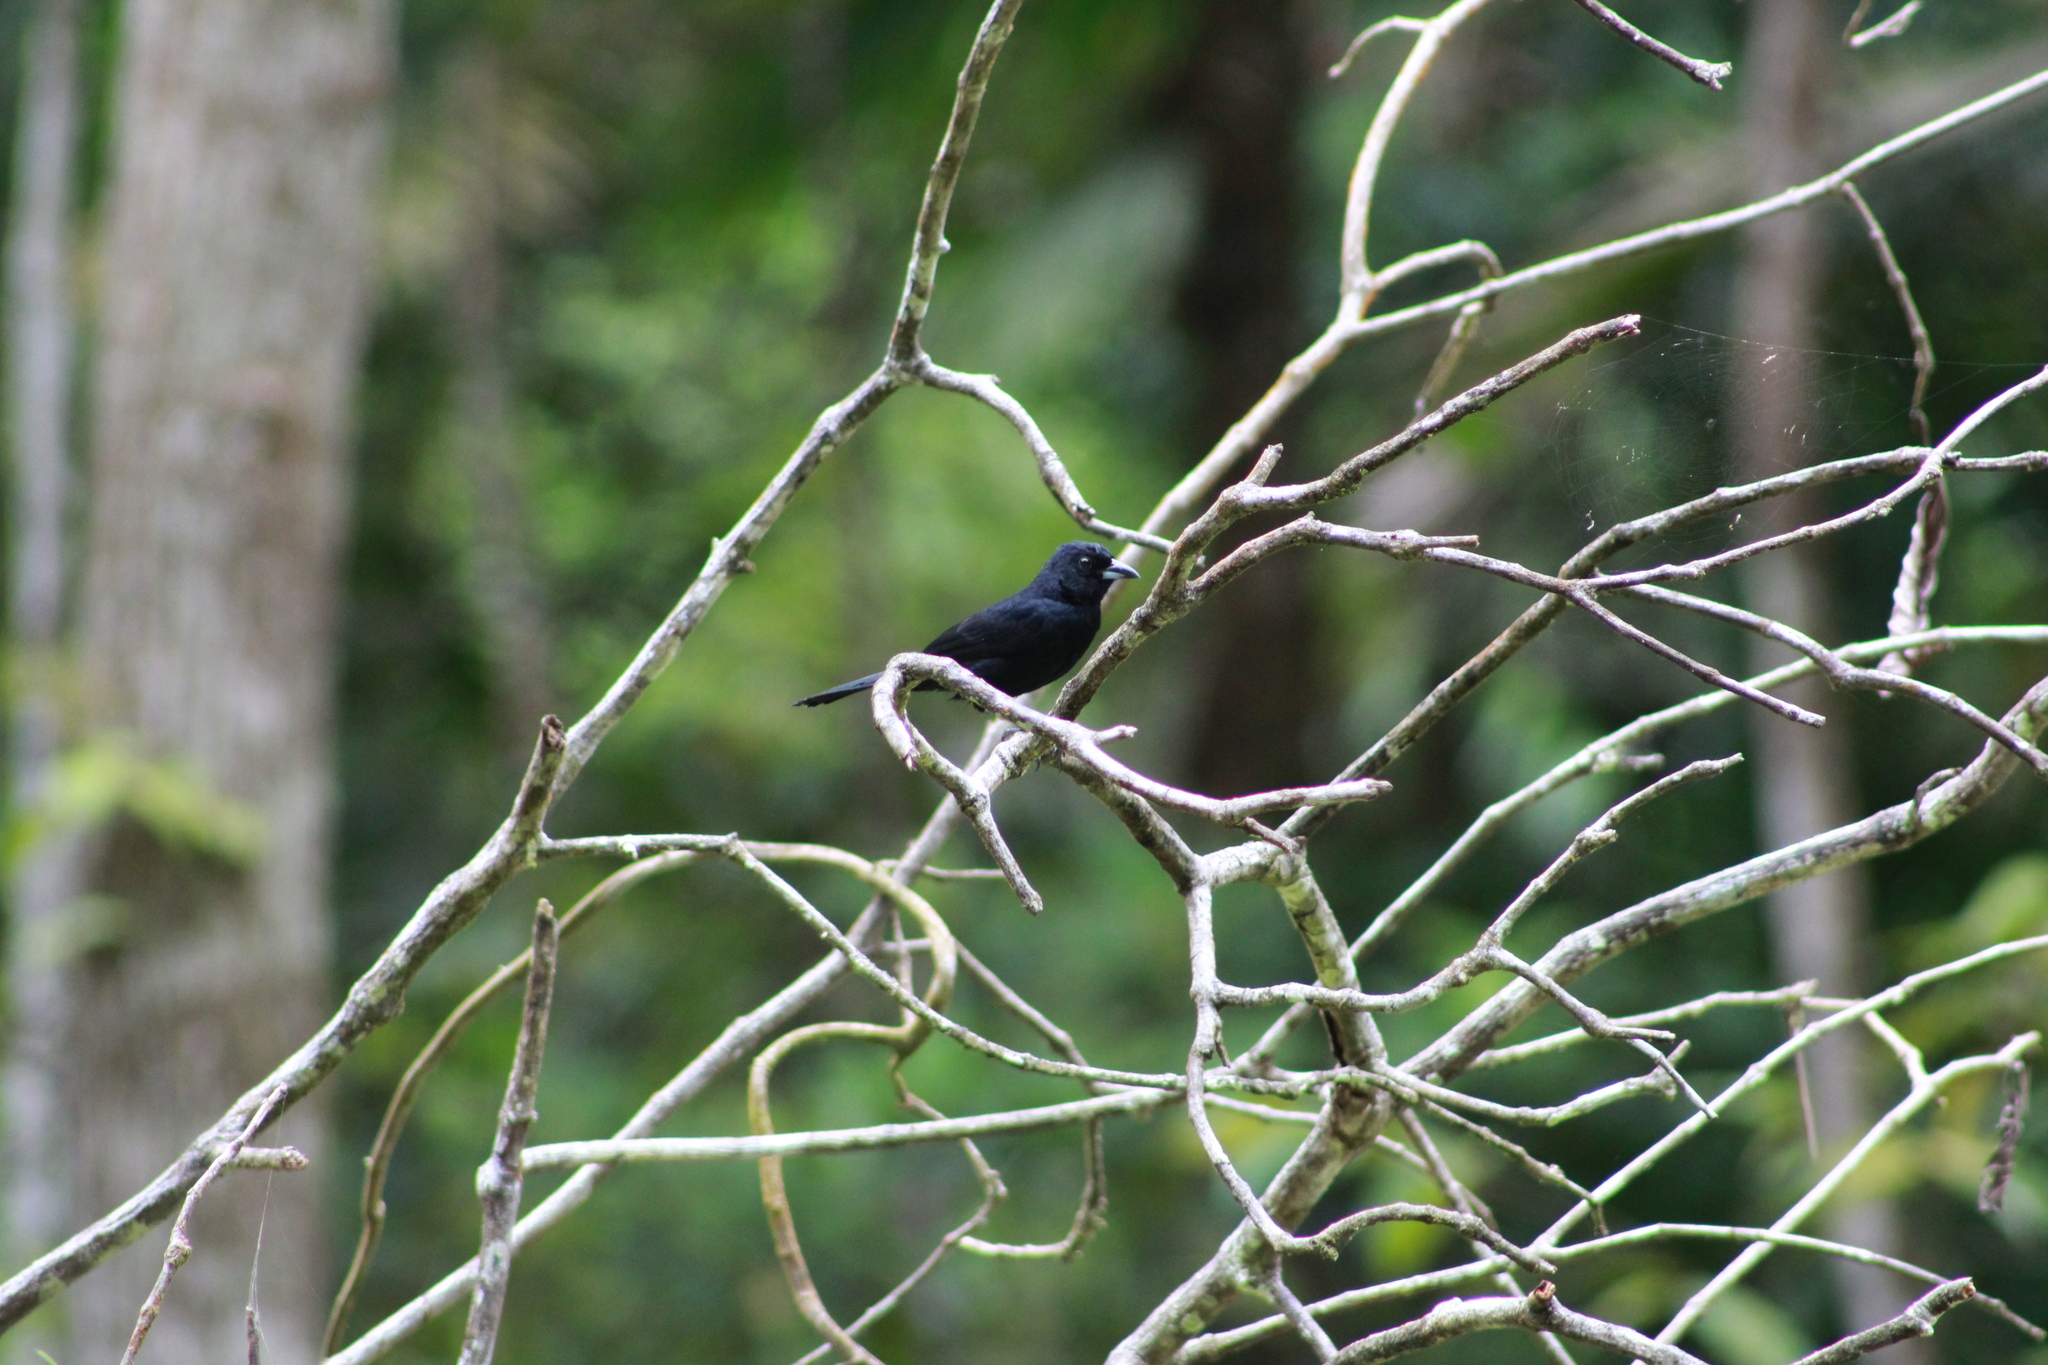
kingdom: Animalia
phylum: Chordata
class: Aves
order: Passeriformes
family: Thraupidae
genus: Tachyphonus
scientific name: Tachyphonus rufus
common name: White-lined tanager
